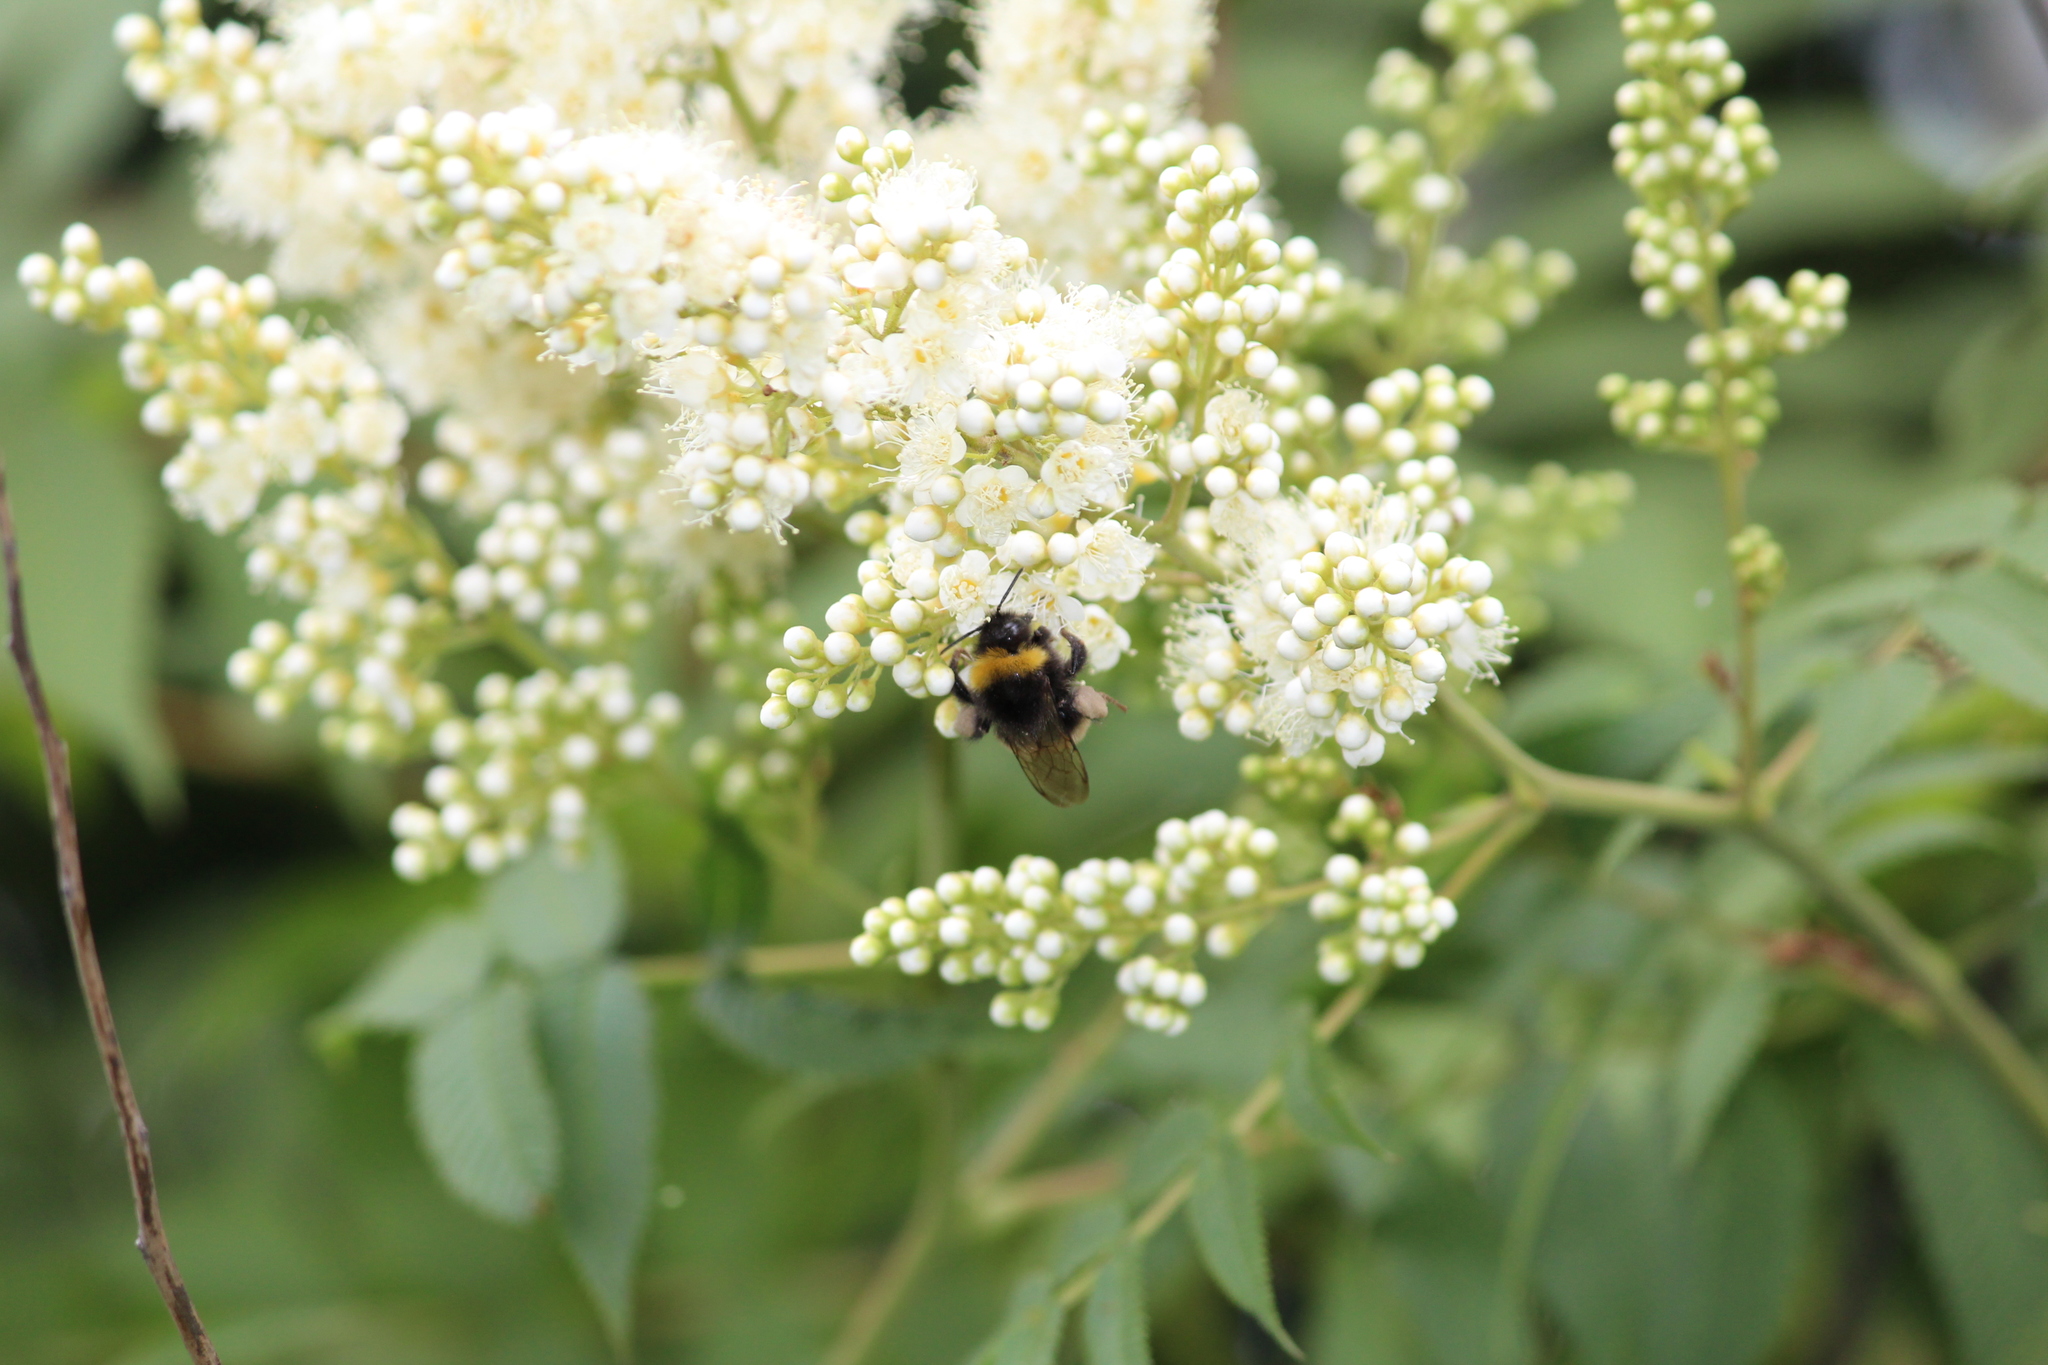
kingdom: Animalia
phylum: Arthropoda
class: Insecta
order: Hymenoptera
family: Apidae
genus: Bombus
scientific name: Bombus
